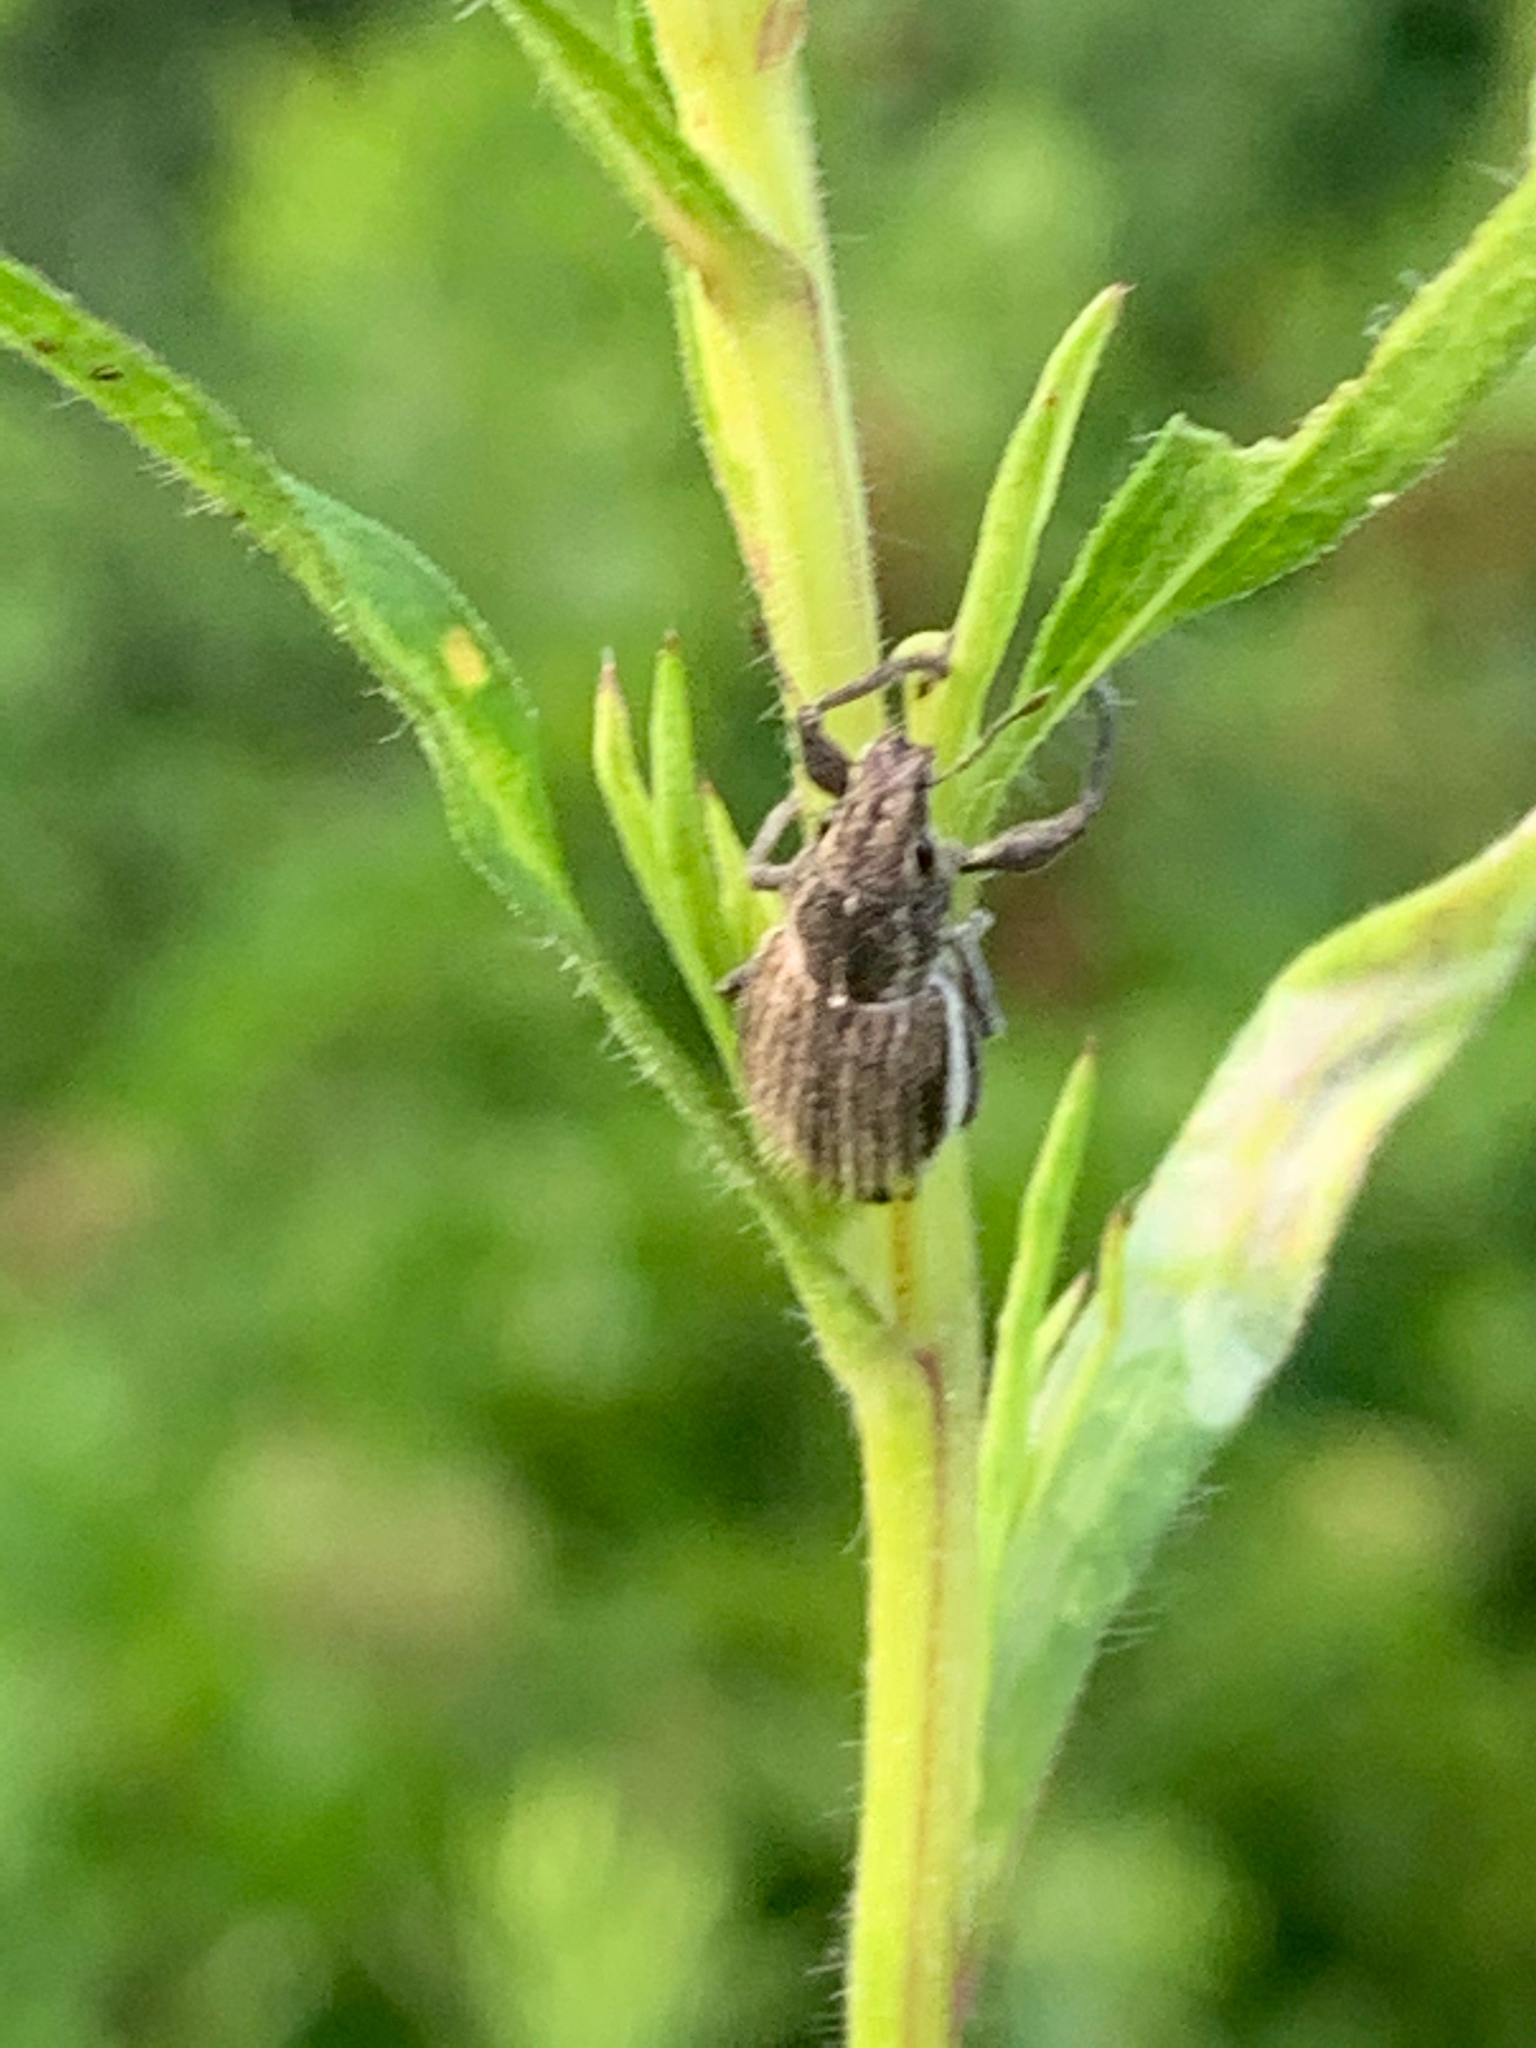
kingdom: Animalia
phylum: Arthropoda
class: Insecta
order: Coleoptera
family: Curculionidae
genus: Naupactus
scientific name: Naupactus leucoloma
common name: Whitefringed beetle
